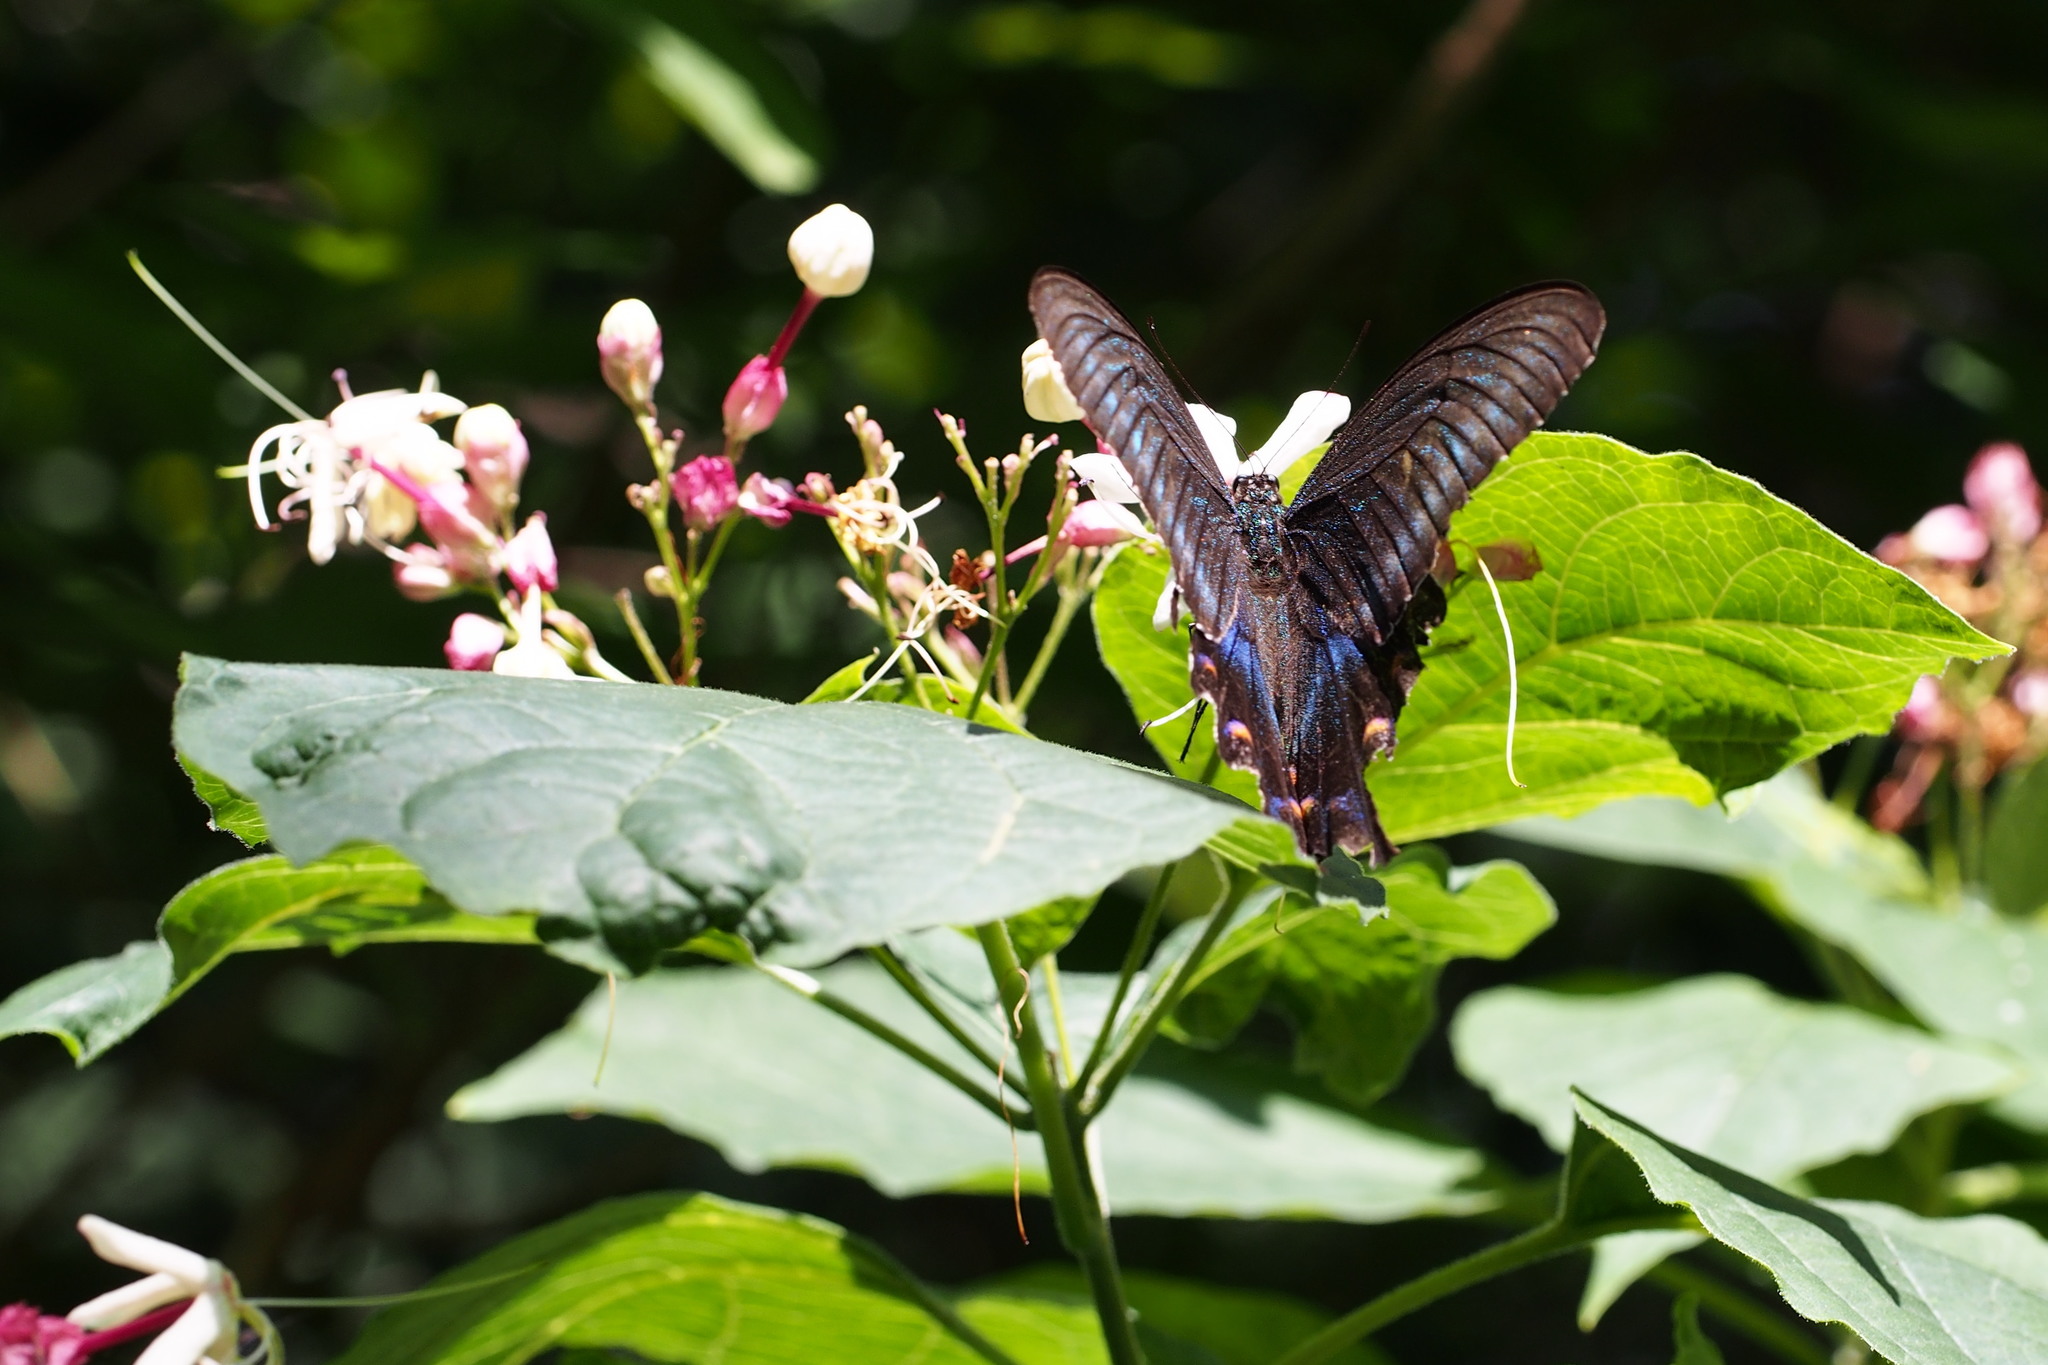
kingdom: Animalia
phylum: Arthropoda
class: Insecta
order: Lepidoptera
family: Papilionidae
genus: Papilio
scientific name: Papilio maackii
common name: Alpine black swallowtail
